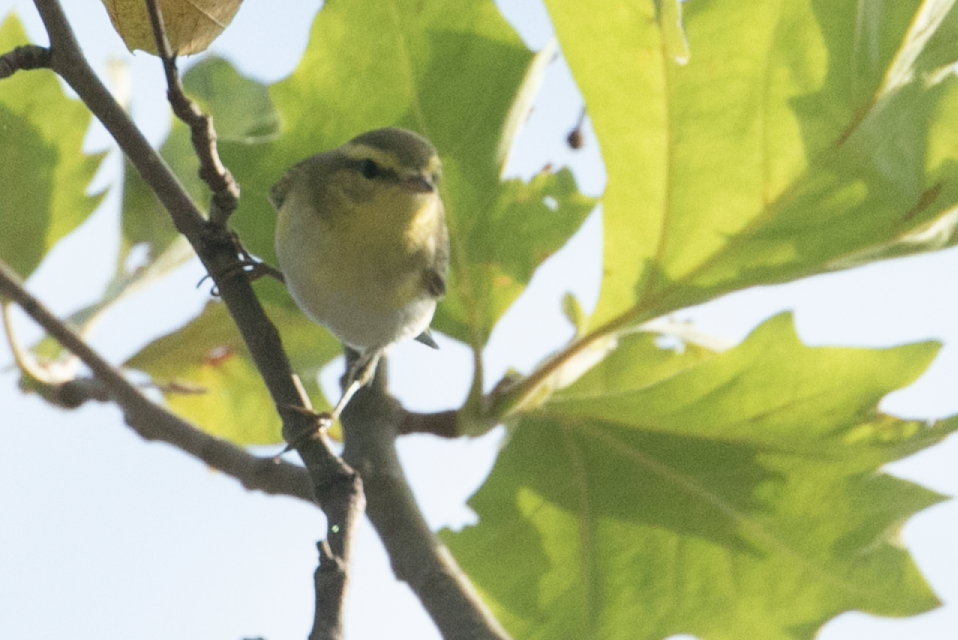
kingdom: Animalia
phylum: Chordata
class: Aves
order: Passeriformes
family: Phylloscopidae
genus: Phylloscopus
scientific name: Phylloscopus sibillatrix
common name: Wood warbler
